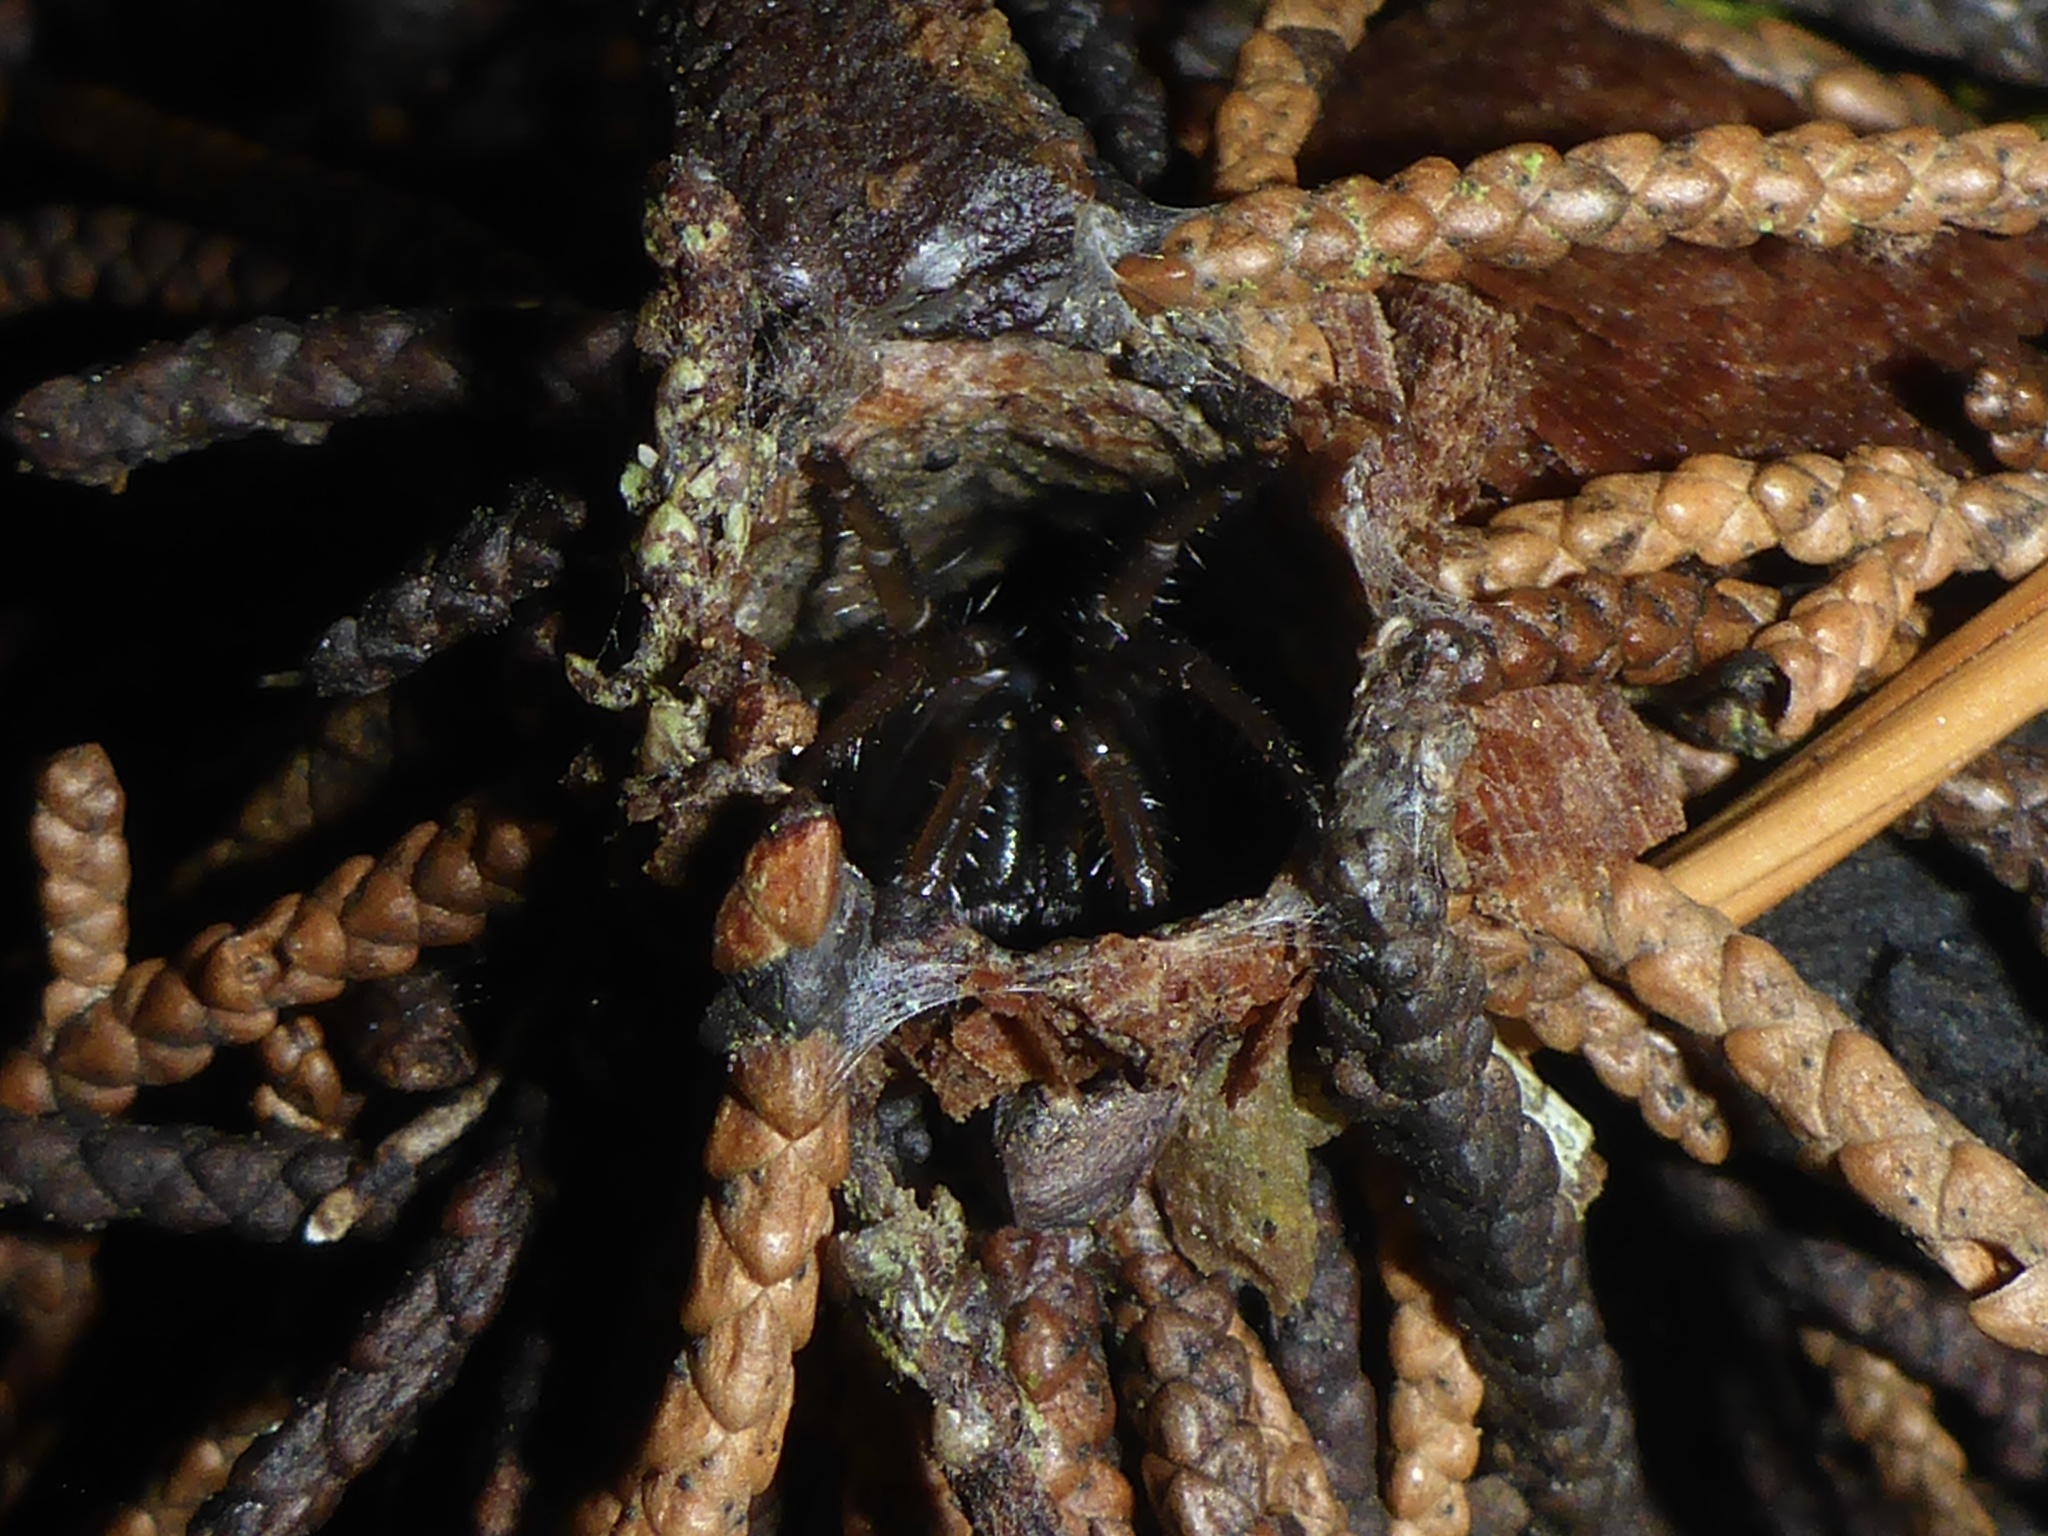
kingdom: Animalia
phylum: Arthropoda
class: Arachnida
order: Araneae
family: Antrodiaetidae
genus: Atypoides
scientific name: Atypoides riversi
